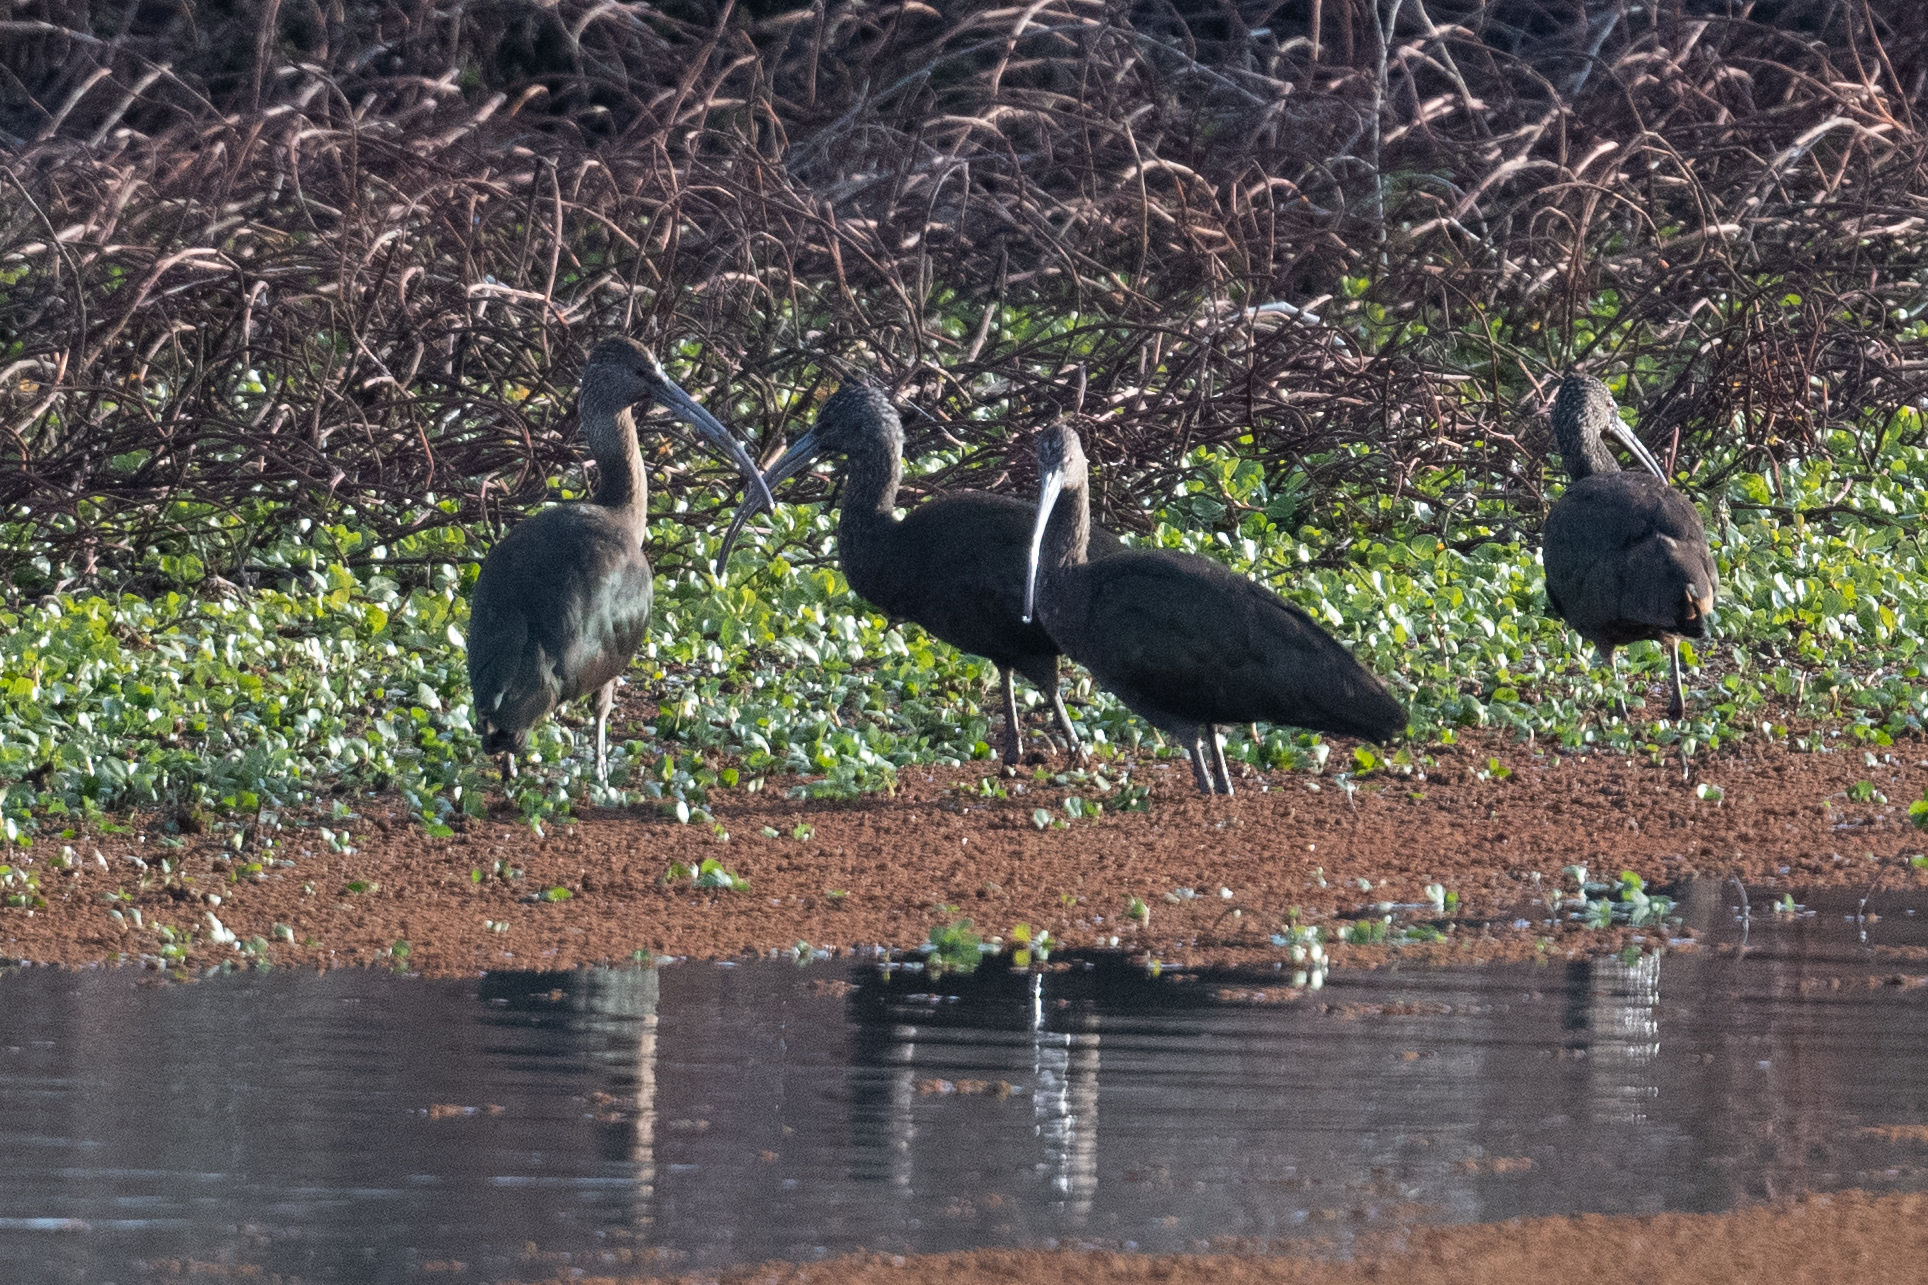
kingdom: Animalia
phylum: Chordata
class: Aves
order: Pelecaniformes
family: Threskiornithidae
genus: Plegadis
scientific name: Plegadis chihi
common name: White-faced ibis
